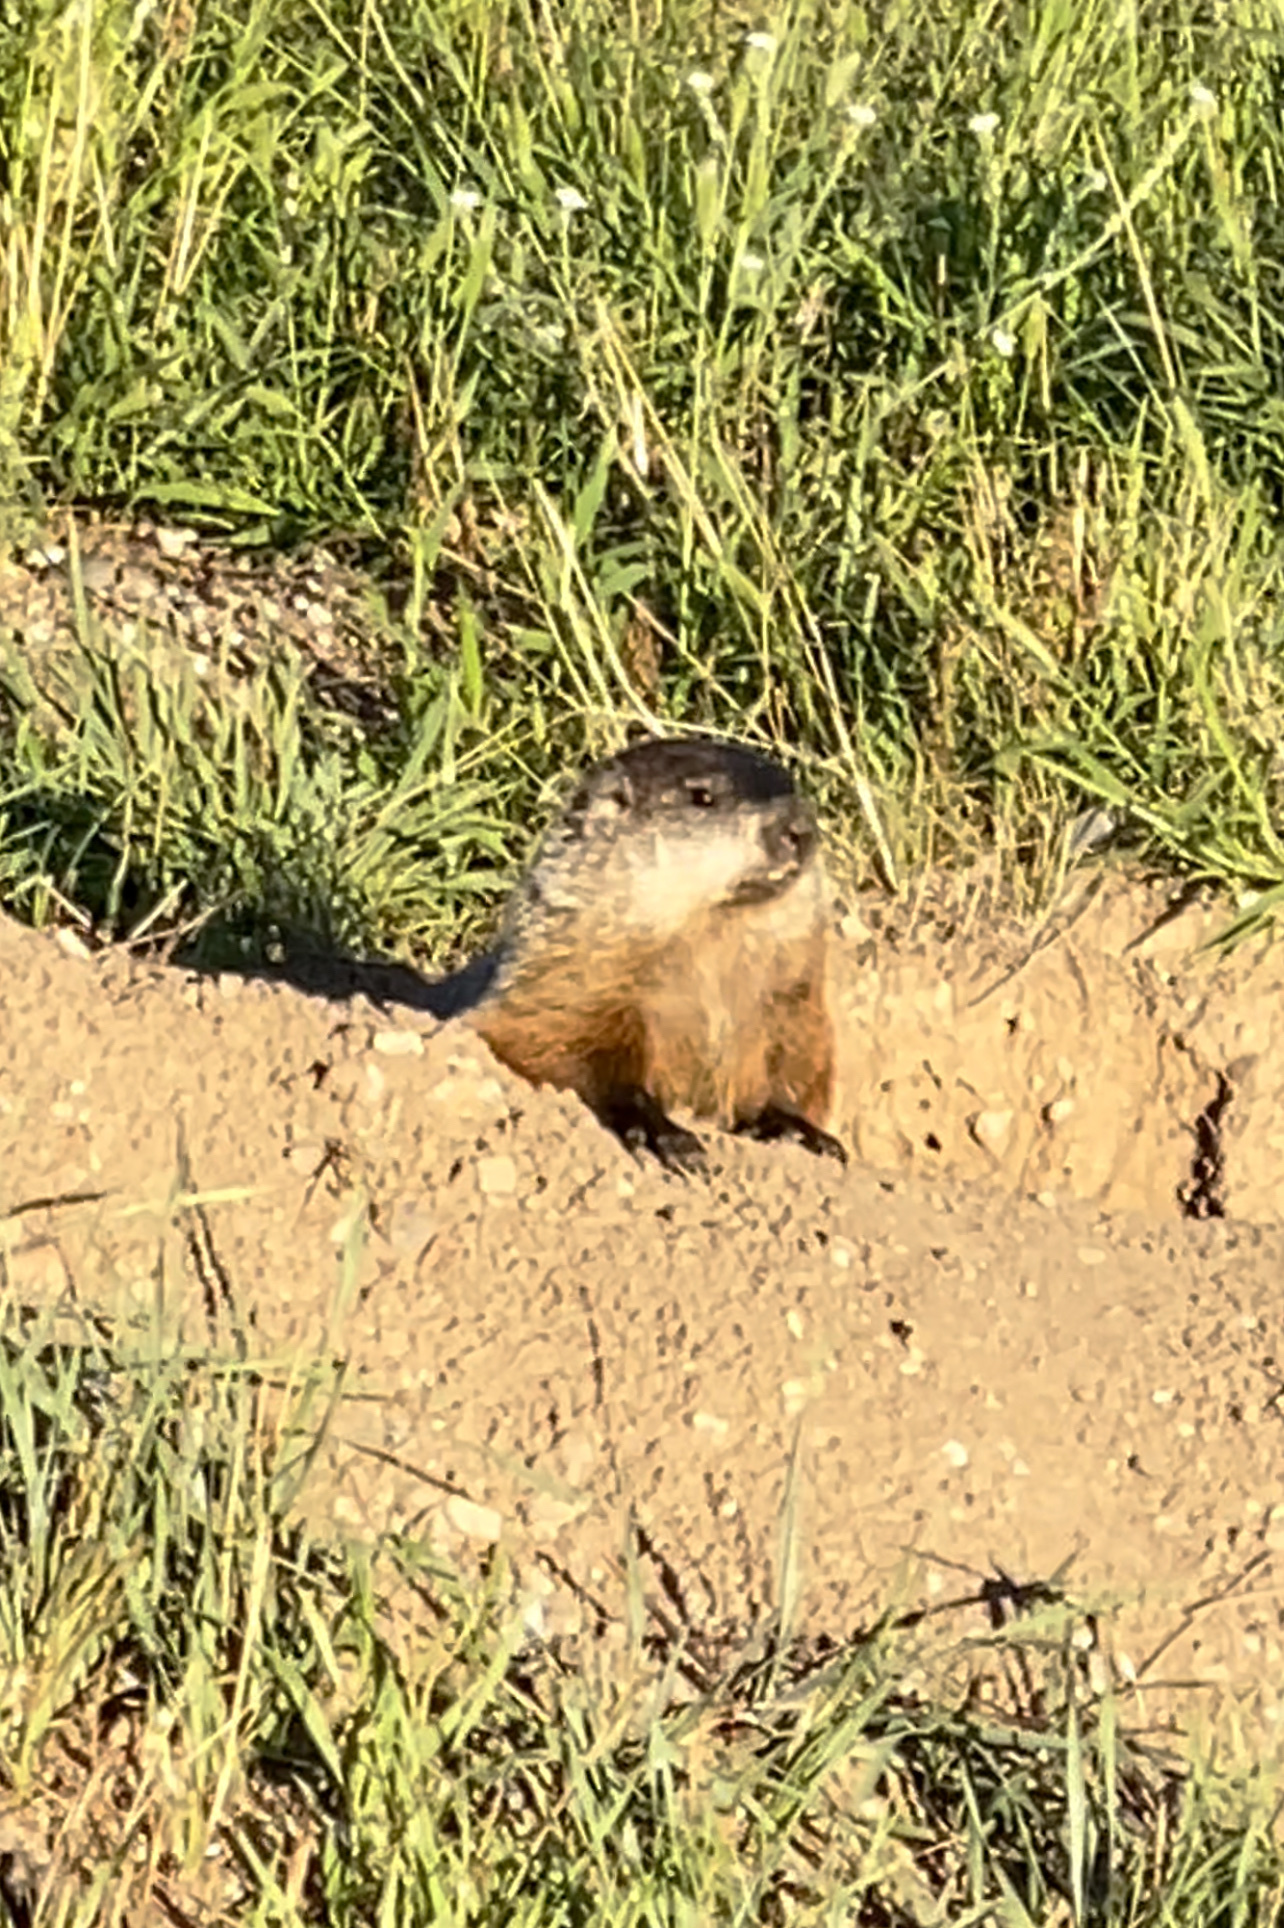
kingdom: Animalia
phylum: Chordata
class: Mammalia
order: Rodentia
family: Sciuridae
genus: Marmota
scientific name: Marmota monax
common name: Groundhog
